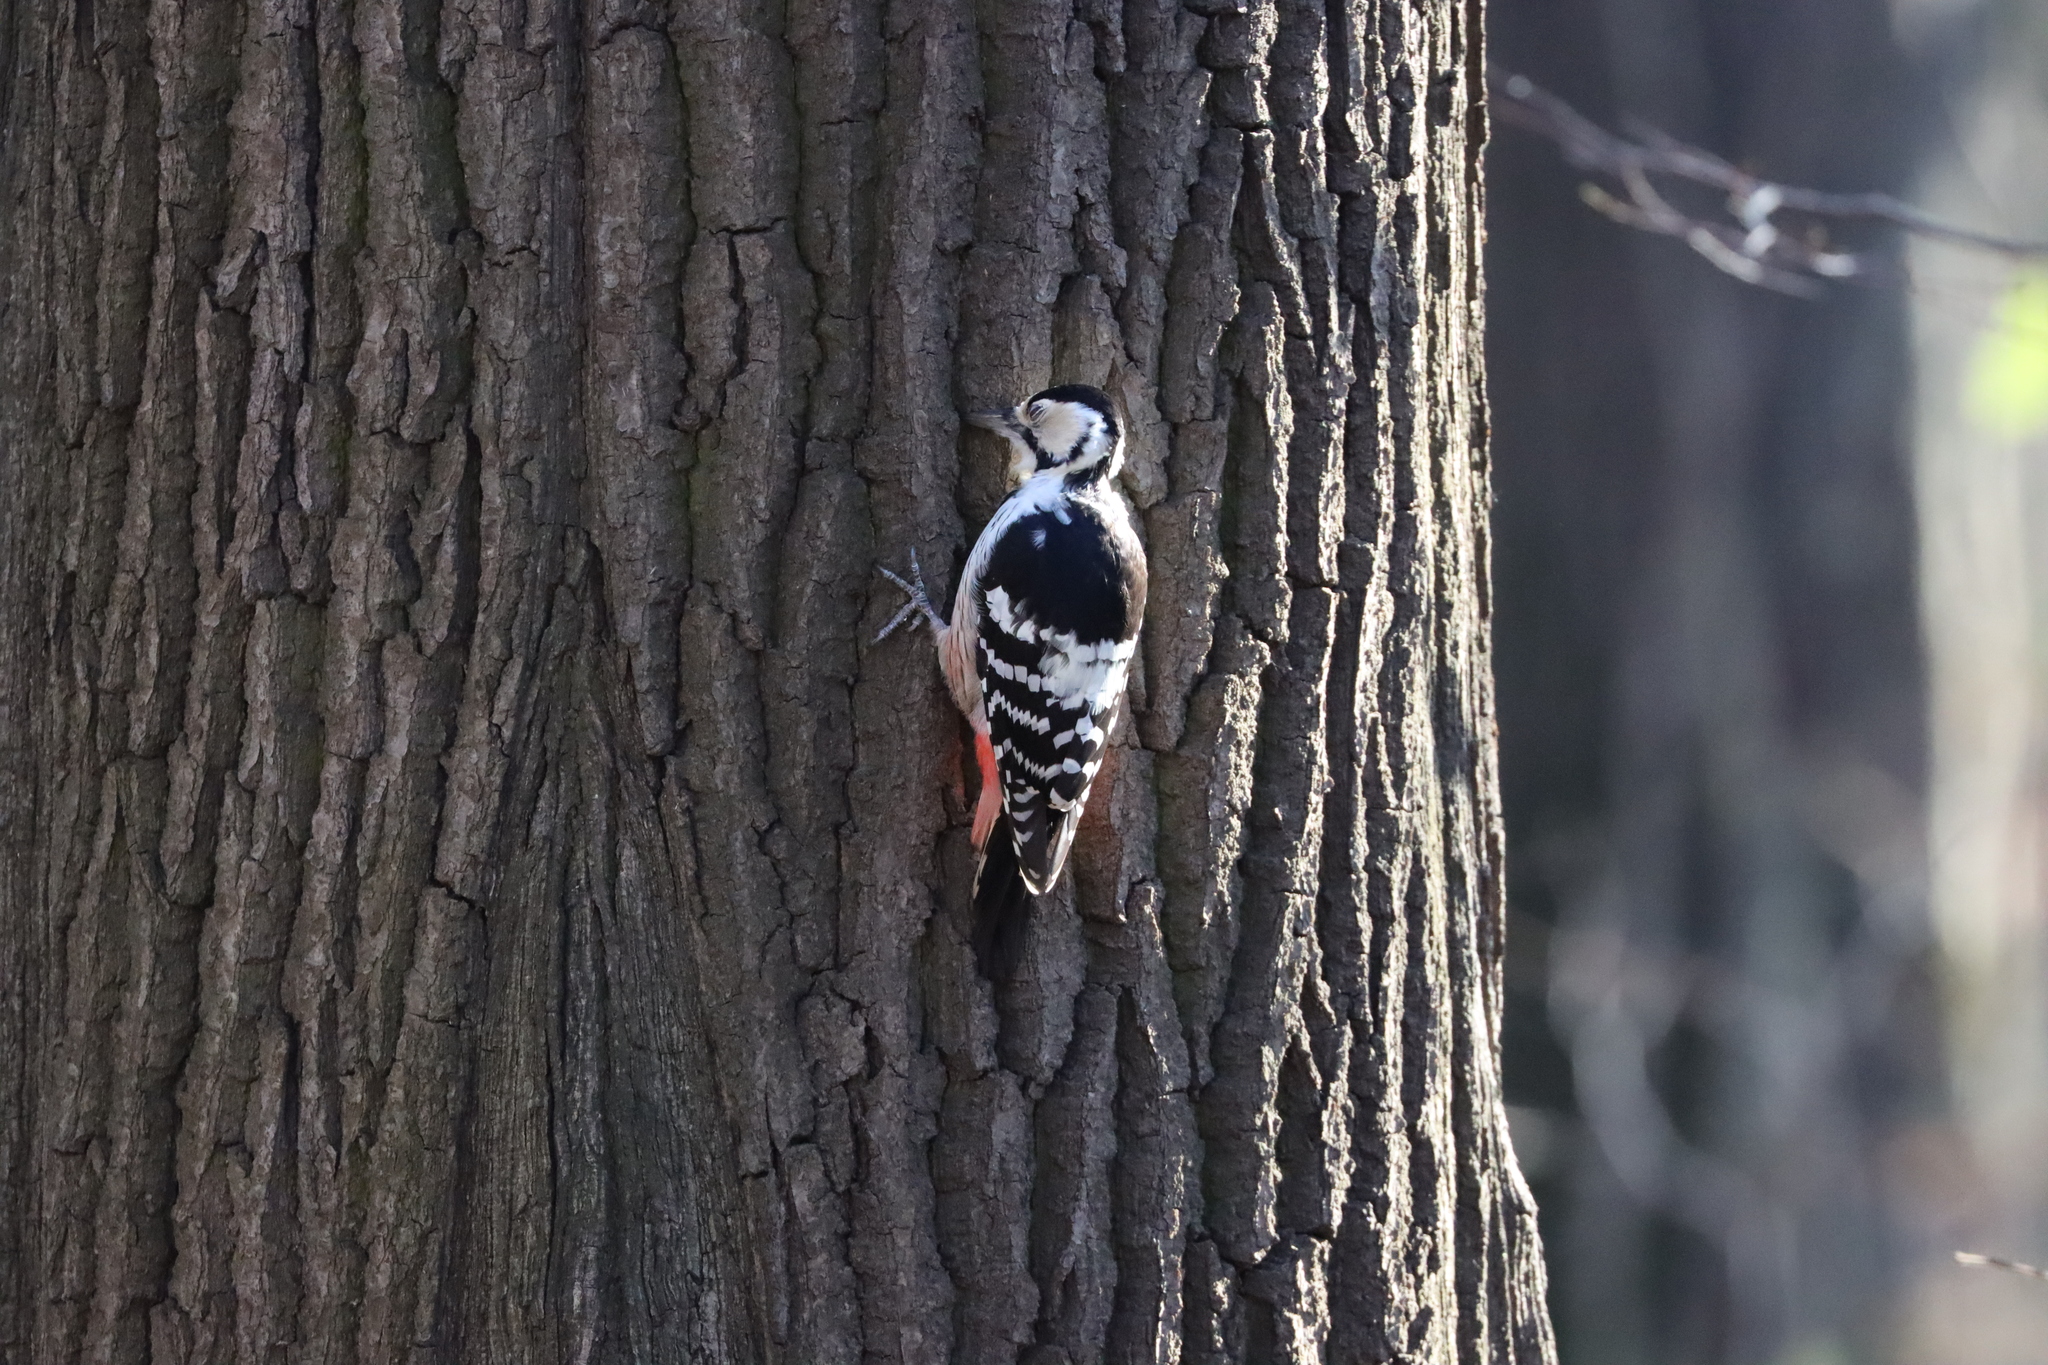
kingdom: Animalia
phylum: Chordata
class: Aves
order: Piciformes
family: Picidae
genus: Dendrocopos
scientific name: Dendrocopos leucotos
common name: White-backed woodpecker
